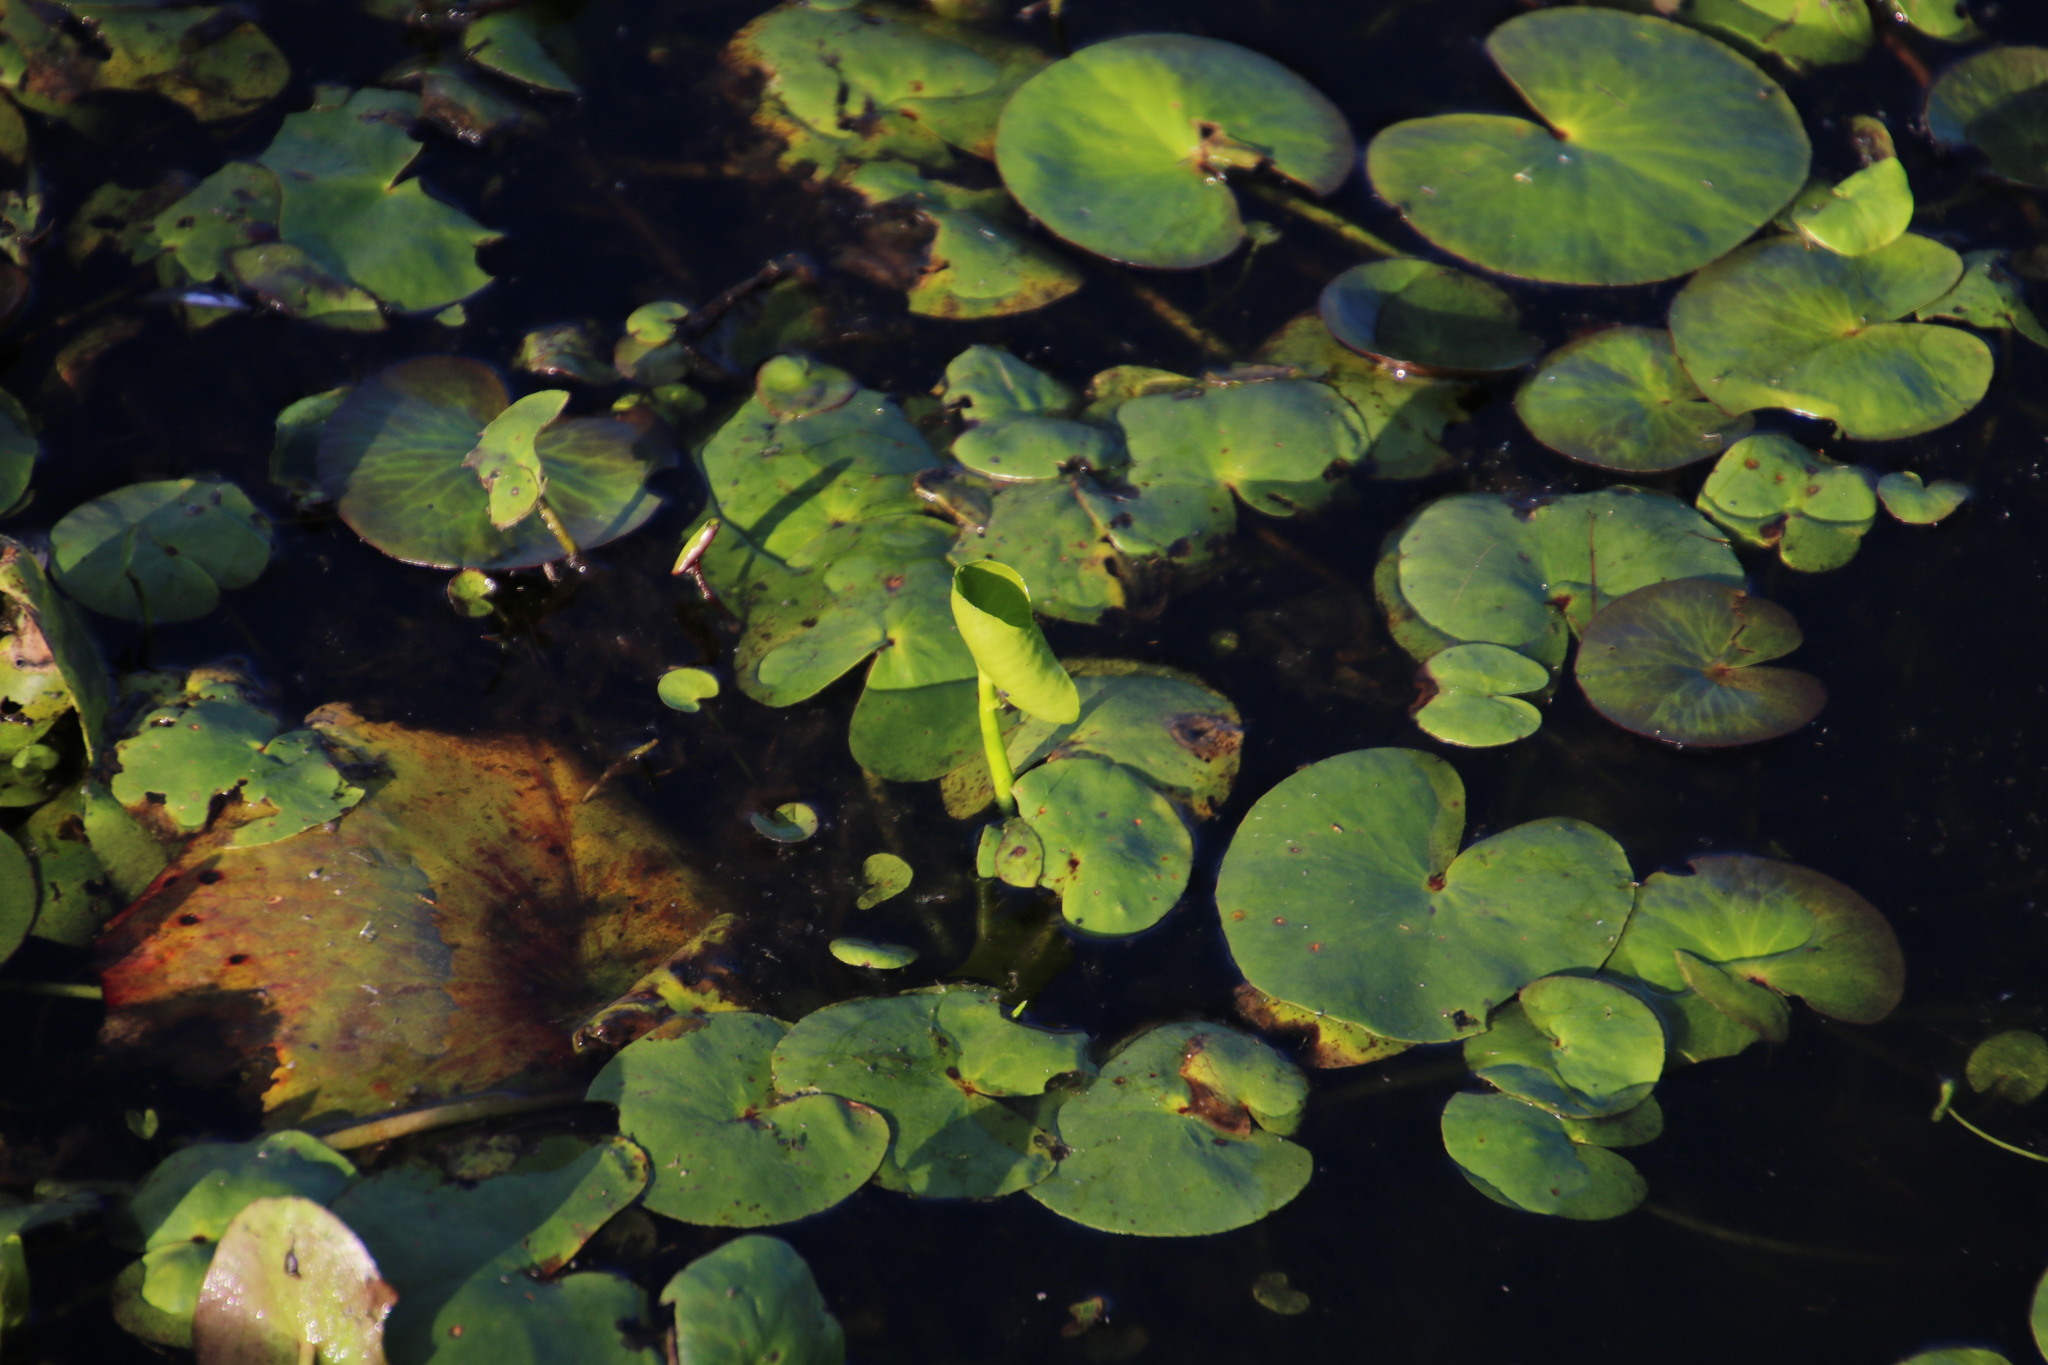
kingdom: Plantae
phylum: Tracheophyta
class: Magnoliopsida
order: Asterales
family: Menyanthaceae
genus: Nymphoides
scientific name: Nymphoides thunbergiana
